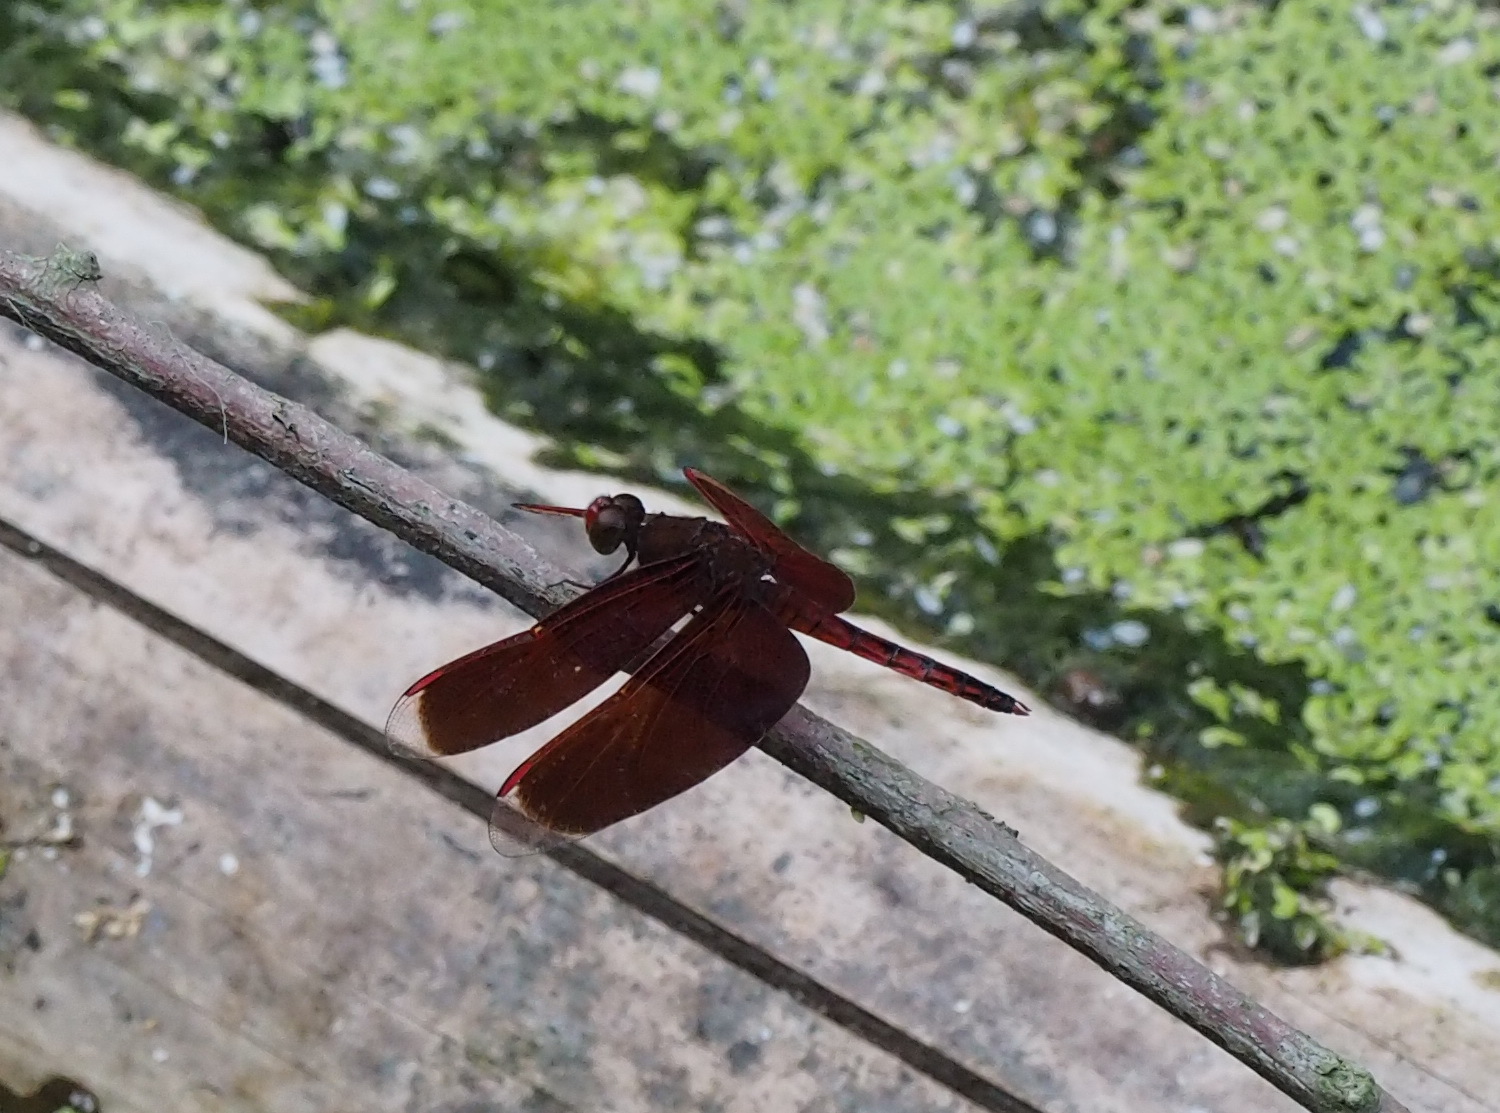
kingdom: Animalia
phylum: Arthropoda
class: Insecta
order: Odonata
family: Libellulidae
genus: Neurothemis
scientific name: Neurothemis taiwanensis
